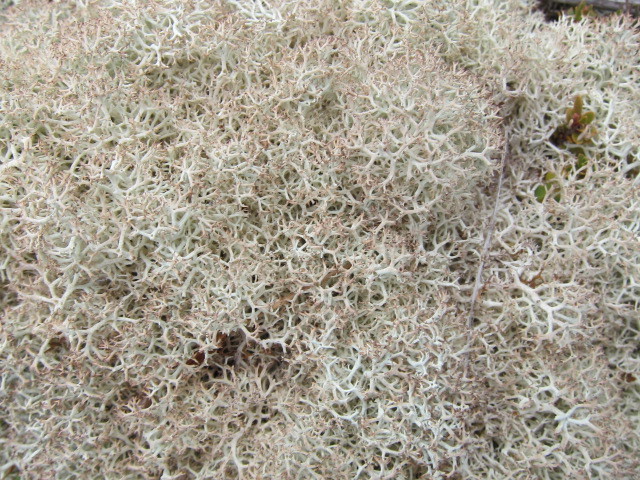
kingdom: Fungi
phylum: Ascomycota
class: Lecanoromycetes
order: Lecanorales
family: Cladoniaceae
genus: Cladonia
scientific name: Cladonia confusa
